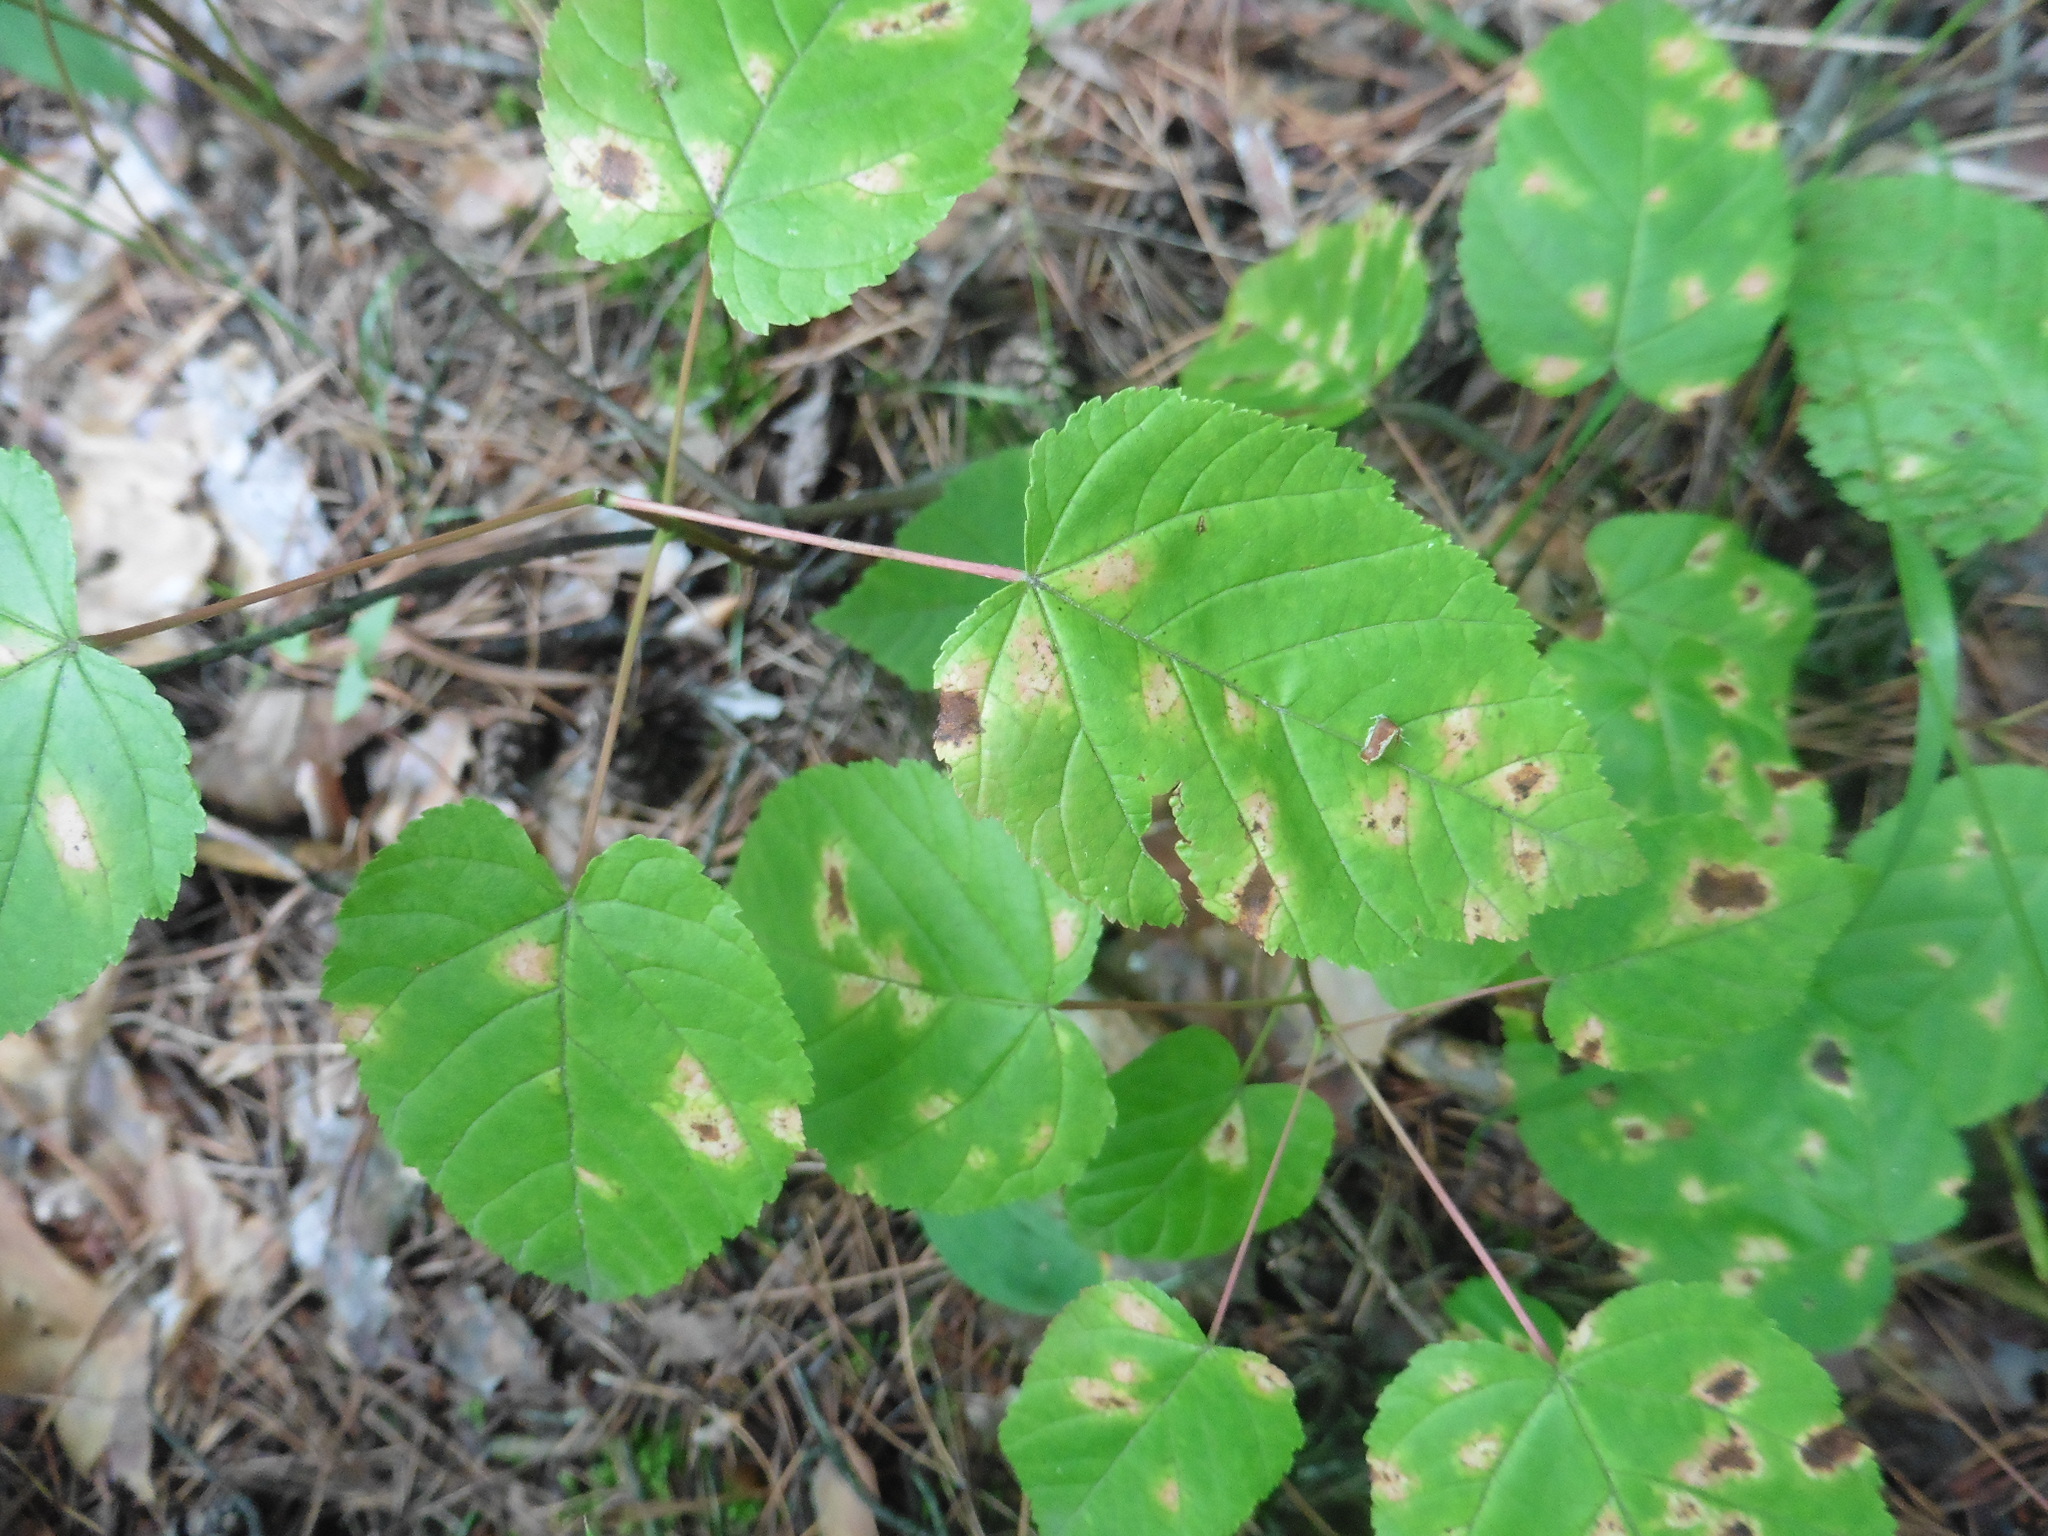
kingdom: Plantae
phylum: Tracheophyta
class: Magnoliopsida
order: Sapindales
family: Sapindaceae
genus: Acer
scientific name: Acer tataricum
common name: Tartar maple
